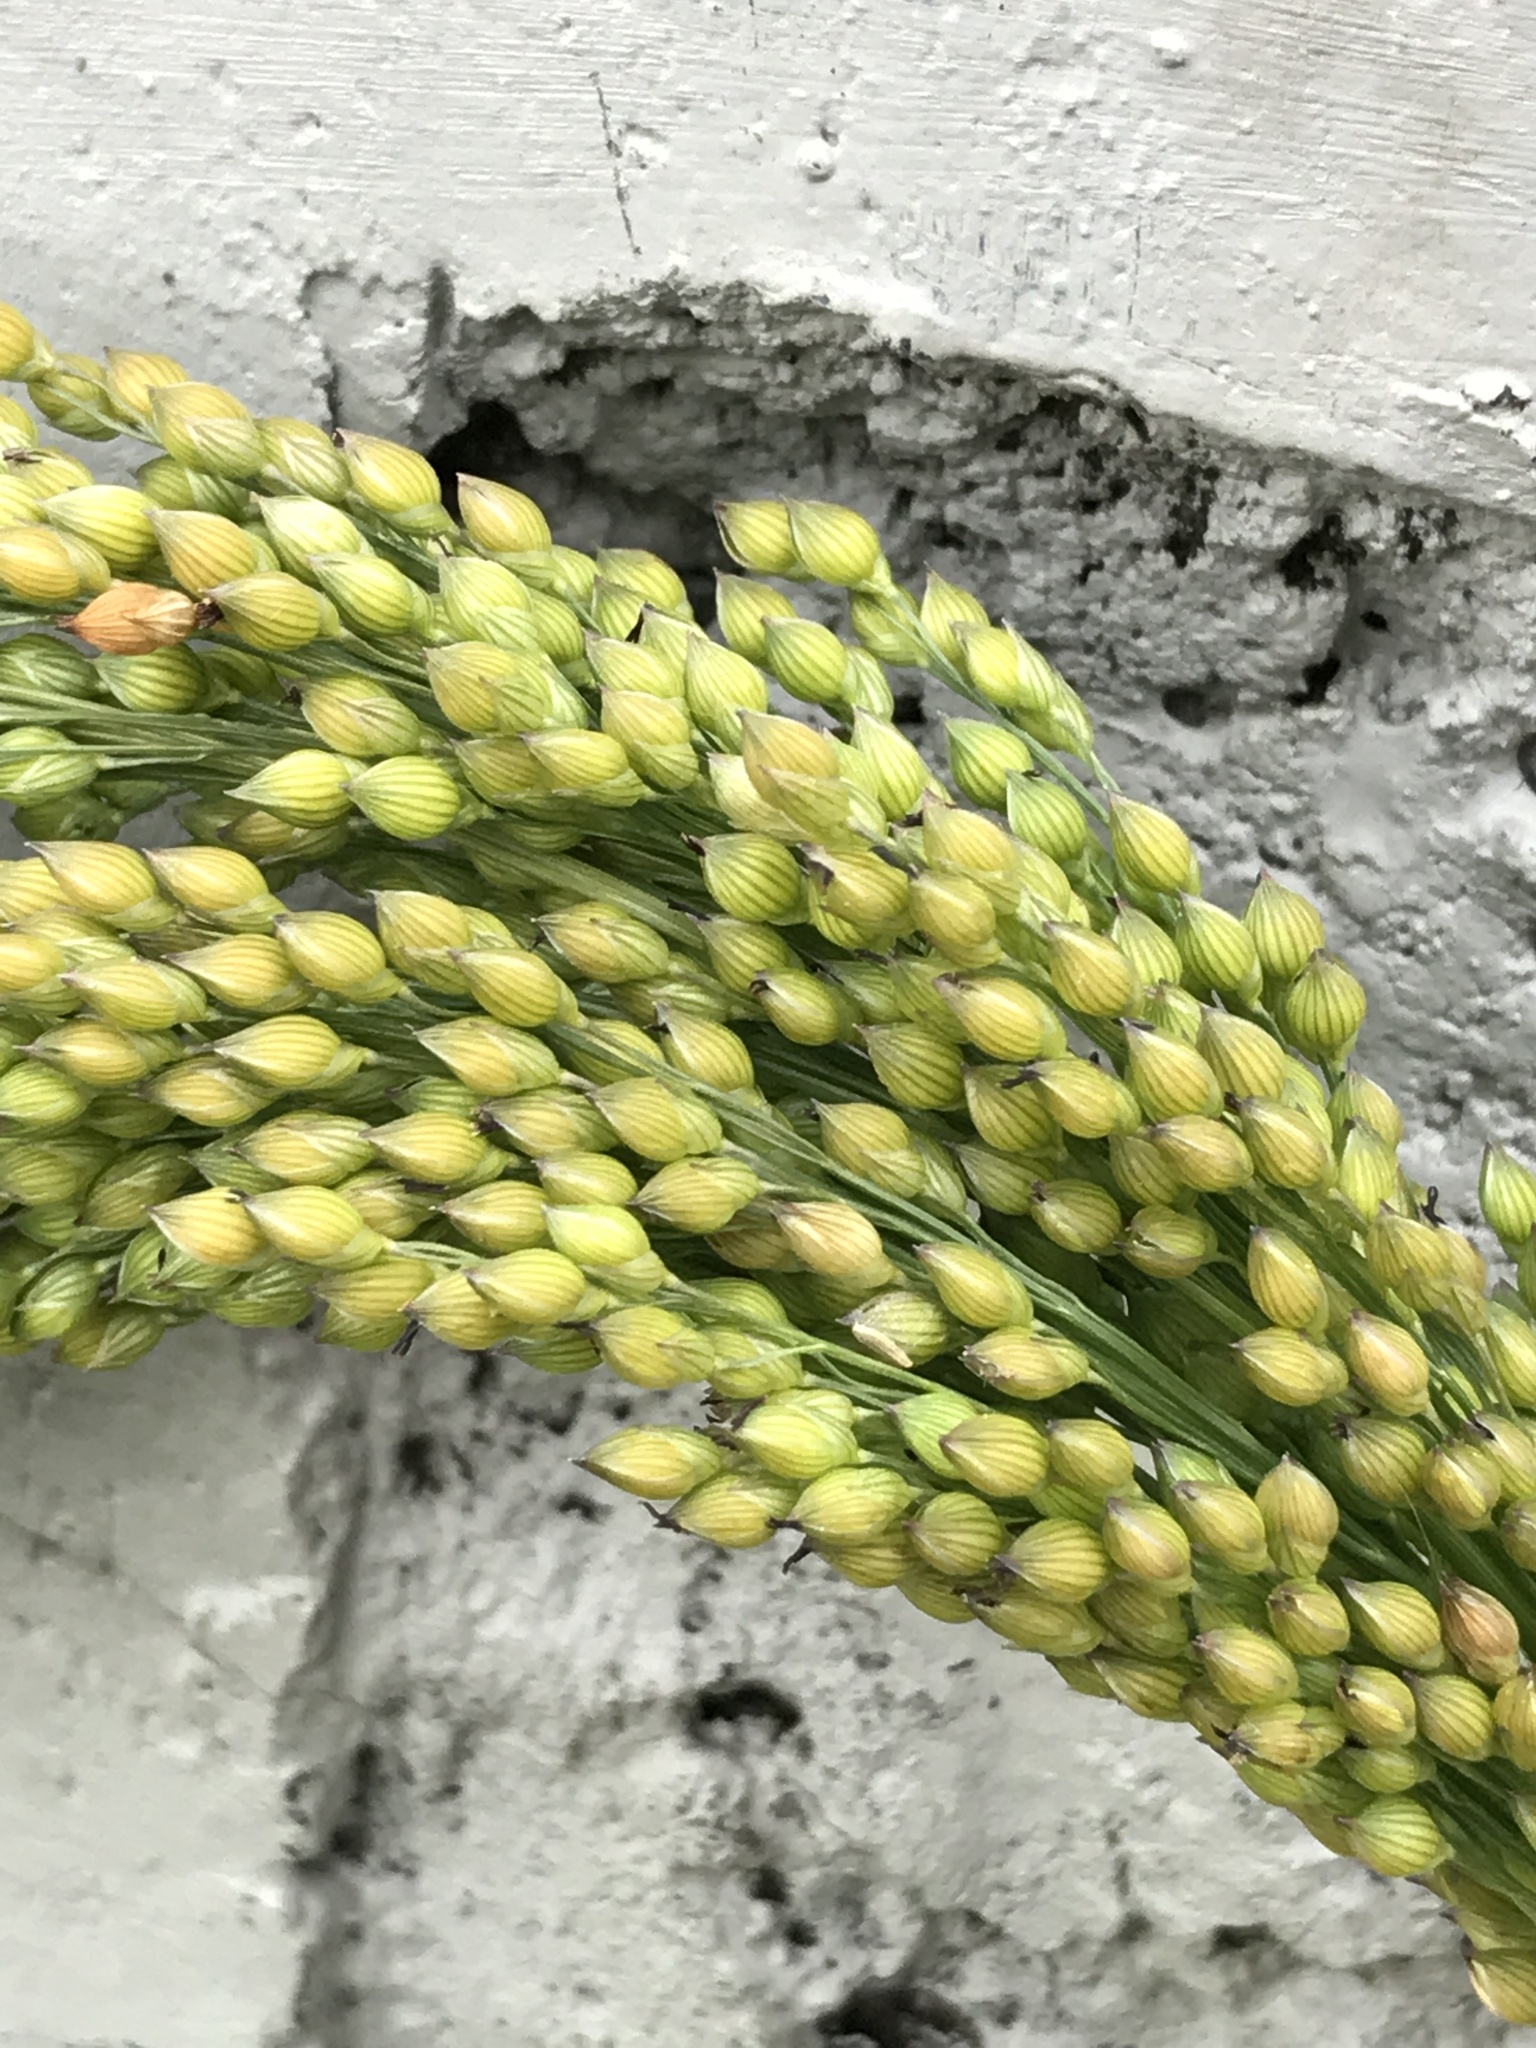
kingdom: Plantae
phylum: Tracheophyta
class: Liliopsida
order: Poales
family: Poaceae
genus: Panicum
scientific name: Panicum miliaceum
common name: Common millet
